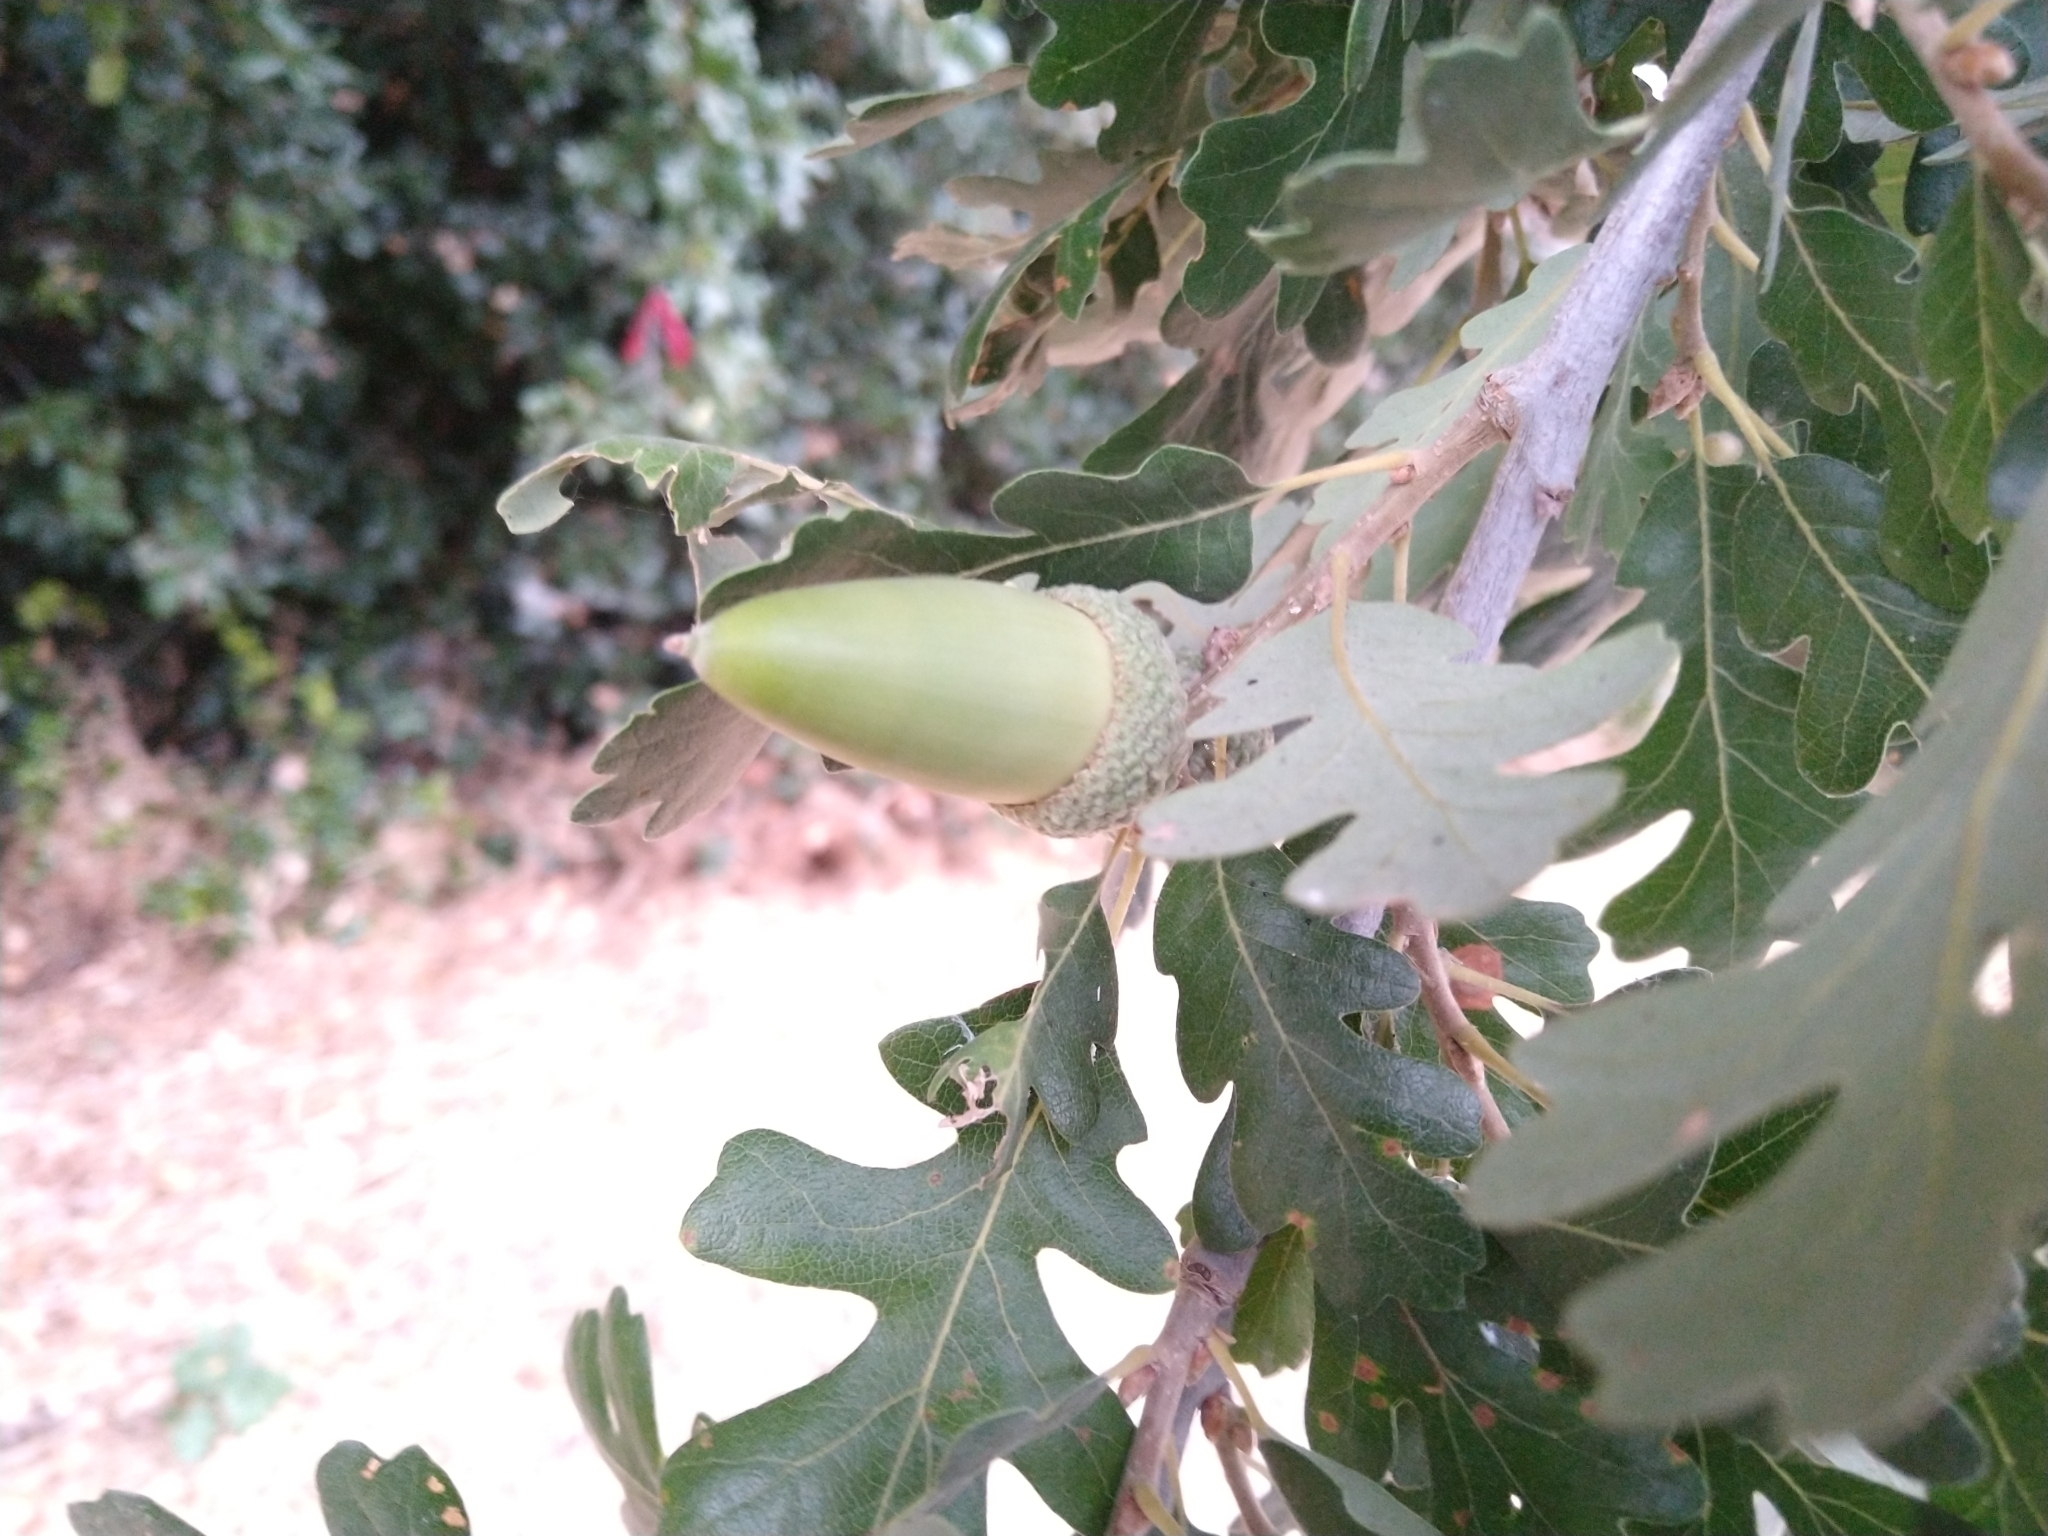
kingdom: Plantae
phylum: Tracheophyta
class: Magnoliopsida
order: Fagales
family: Fagaceae
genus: Quercus
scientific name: Quercus lobata
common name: Valley oak
